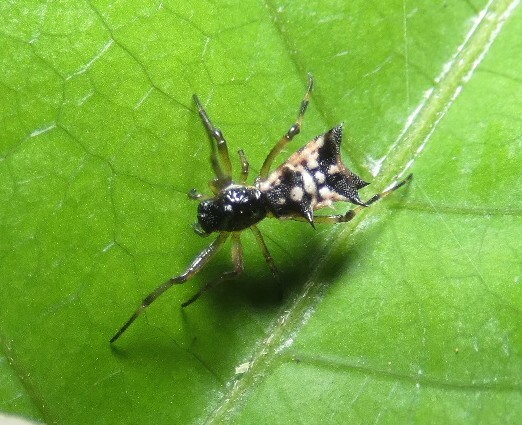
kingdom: Animalia
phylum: Arthropoda
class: Arachnida
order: Araneae
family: Araneidae
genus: Micrathena
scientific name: Micrathena picta
